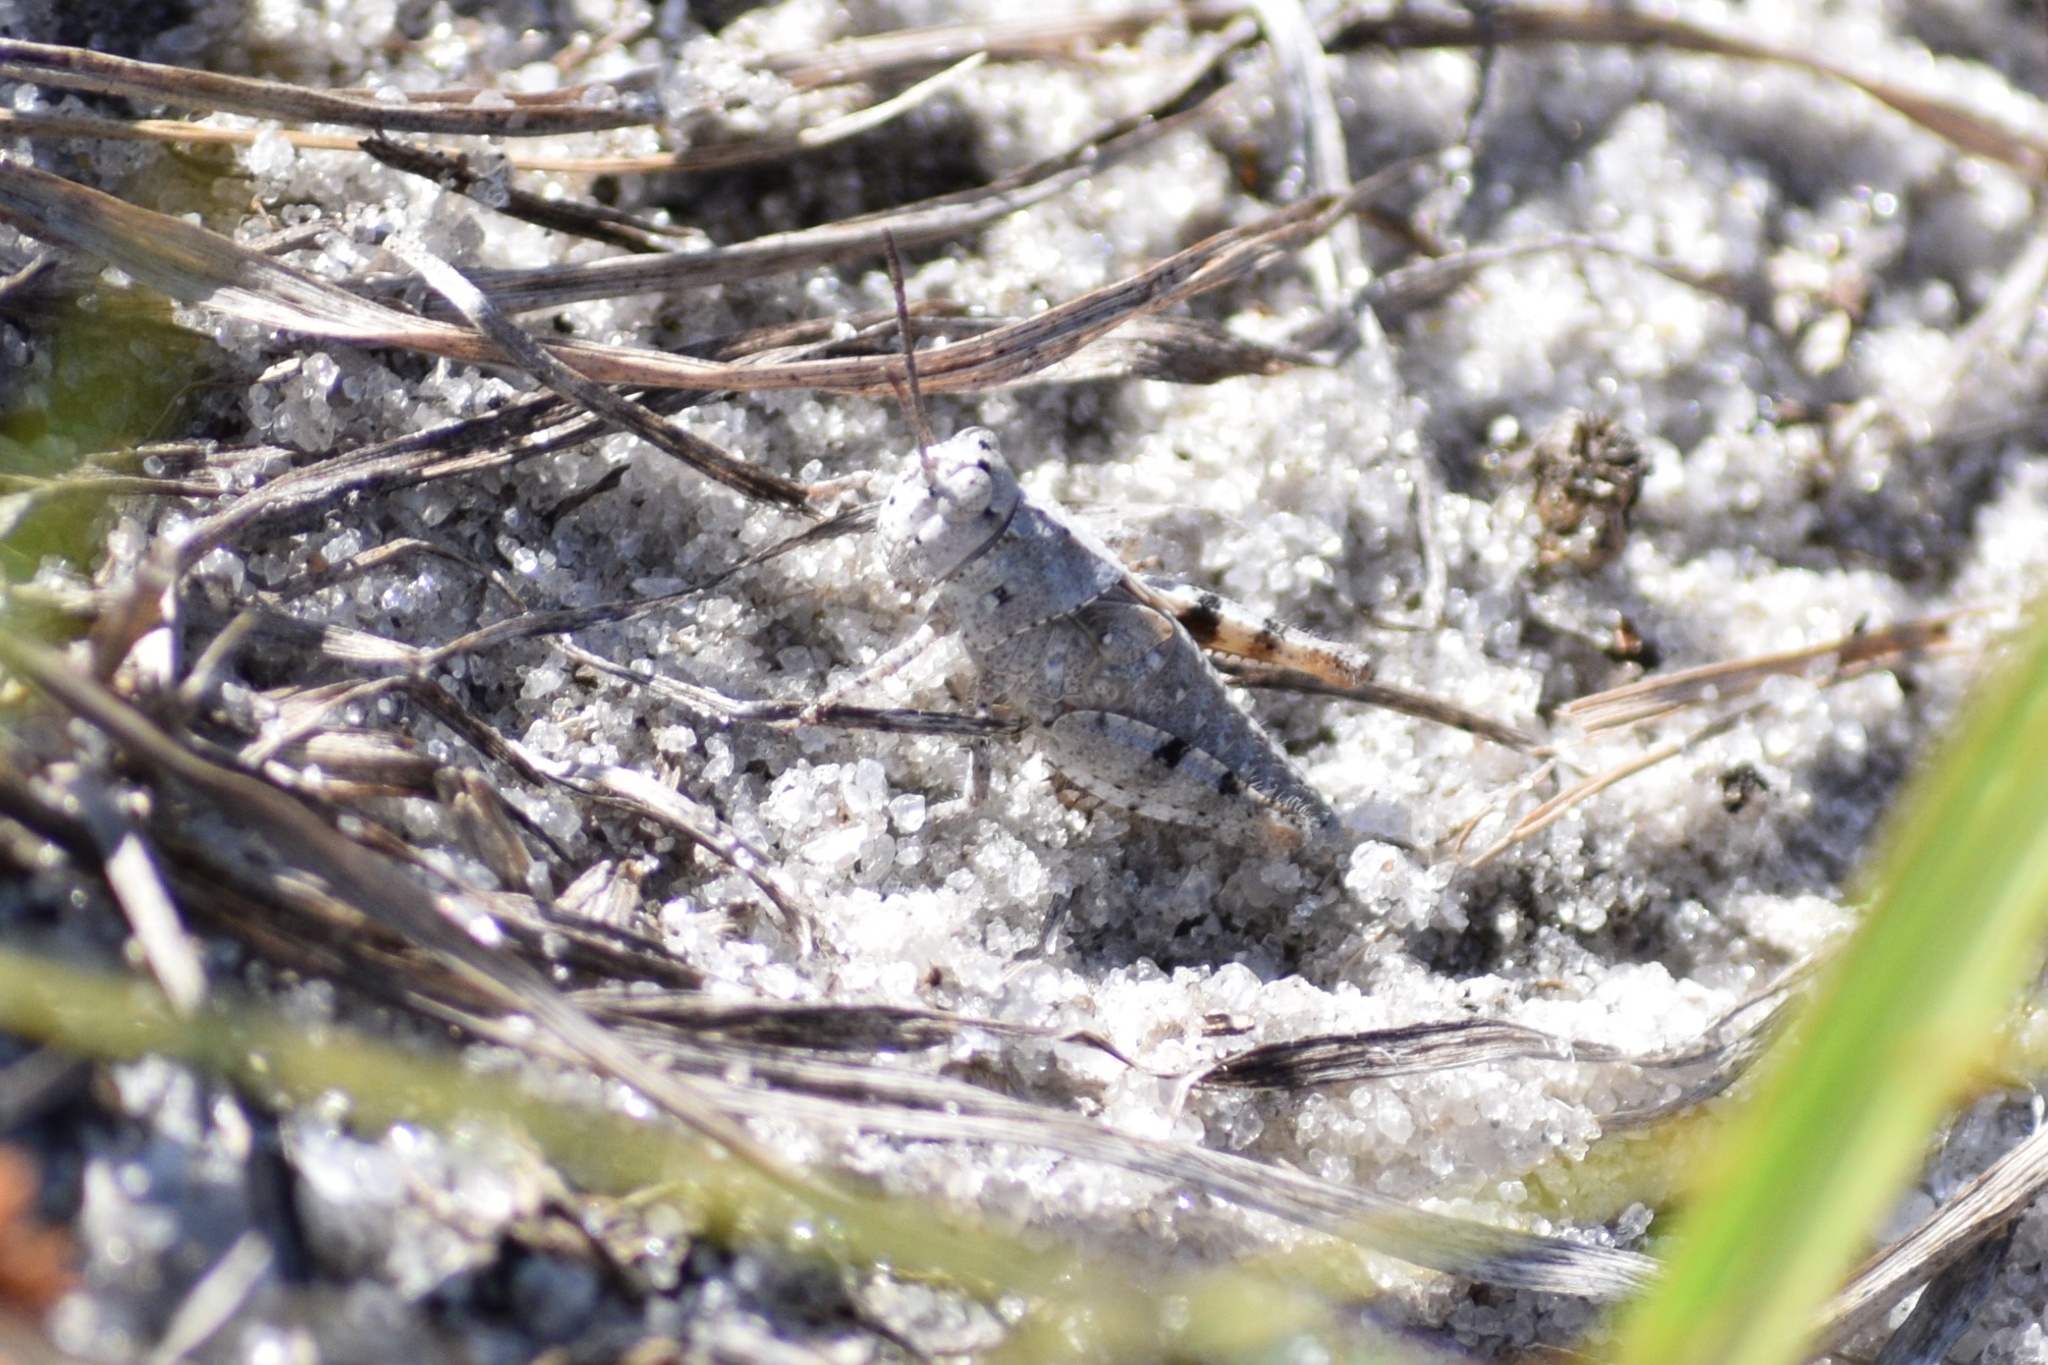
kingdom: Animalia
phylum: Arthropoda
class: Insecta
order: Orthoptera
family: Acrididae
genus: Trimerotropis
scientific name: Trimerotropis maritima
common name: Seaside locust
